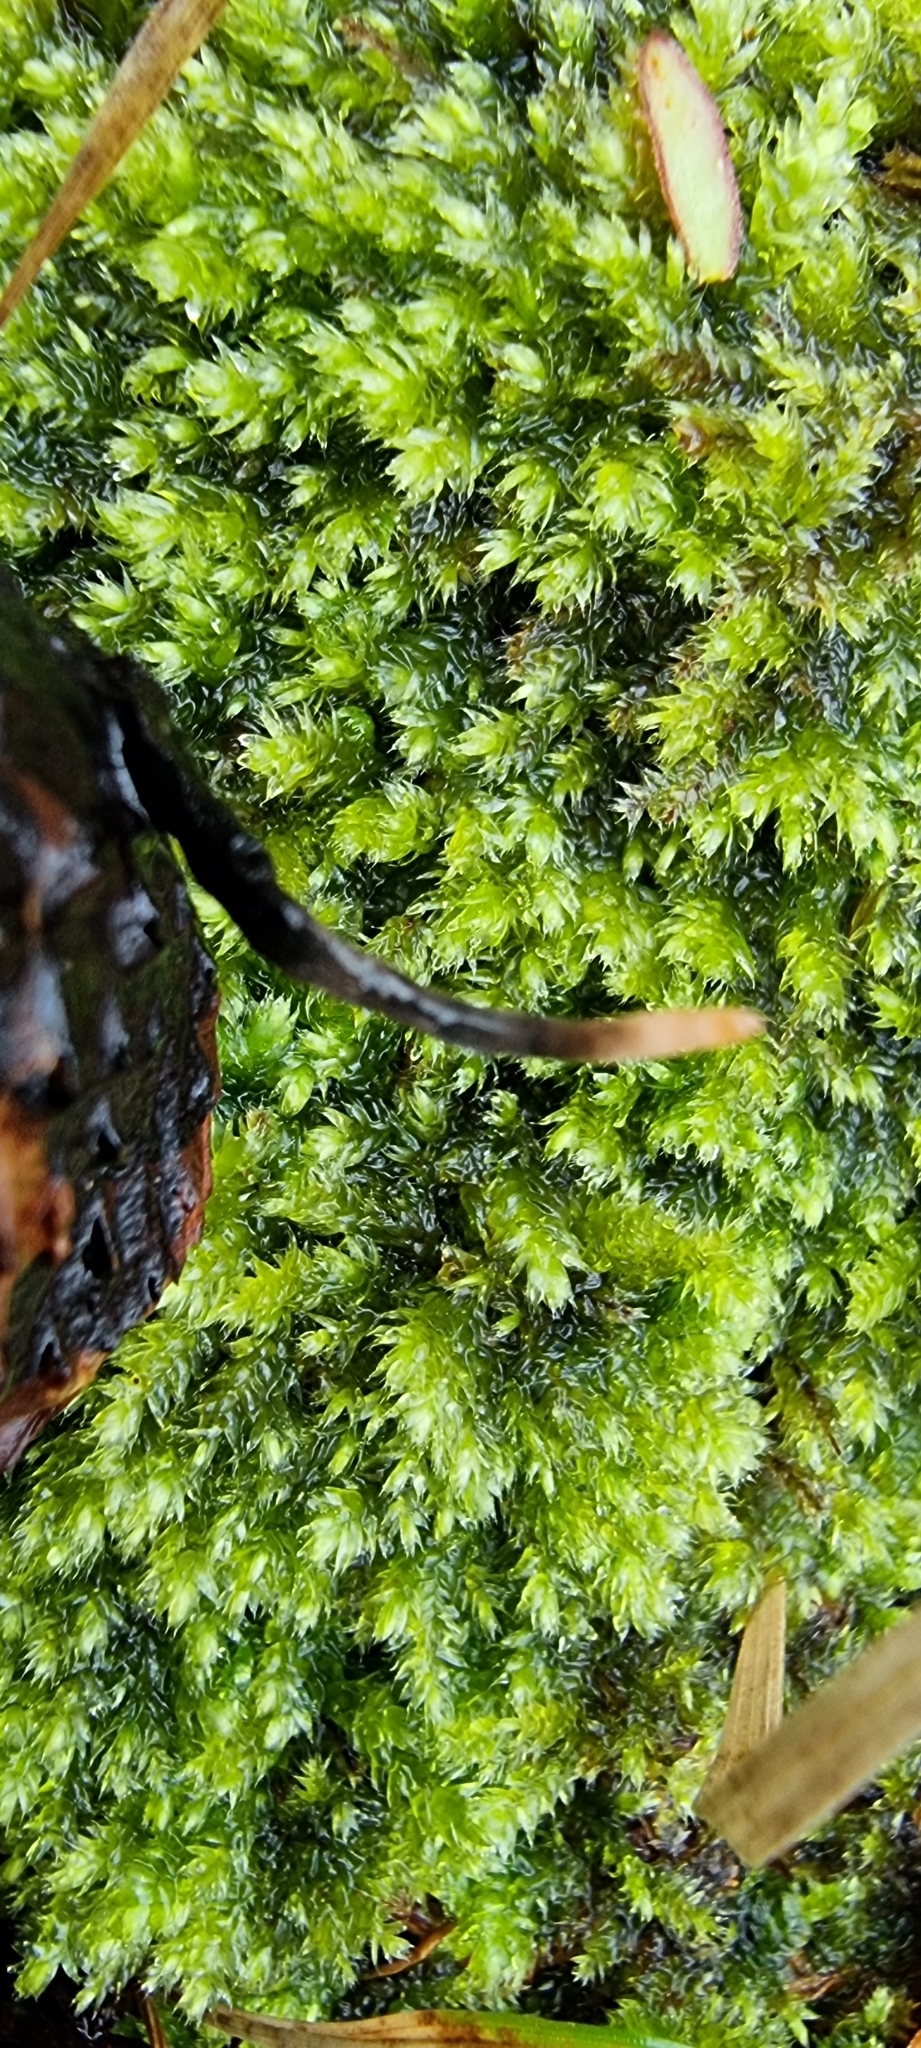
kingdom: Fungi
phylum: Ascomycota
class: Sordariomycetes
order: Xylariales
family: Xylariaceae
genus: Xylaria
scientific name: Xylaria carpophila
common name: Beechmast candlesnuff
